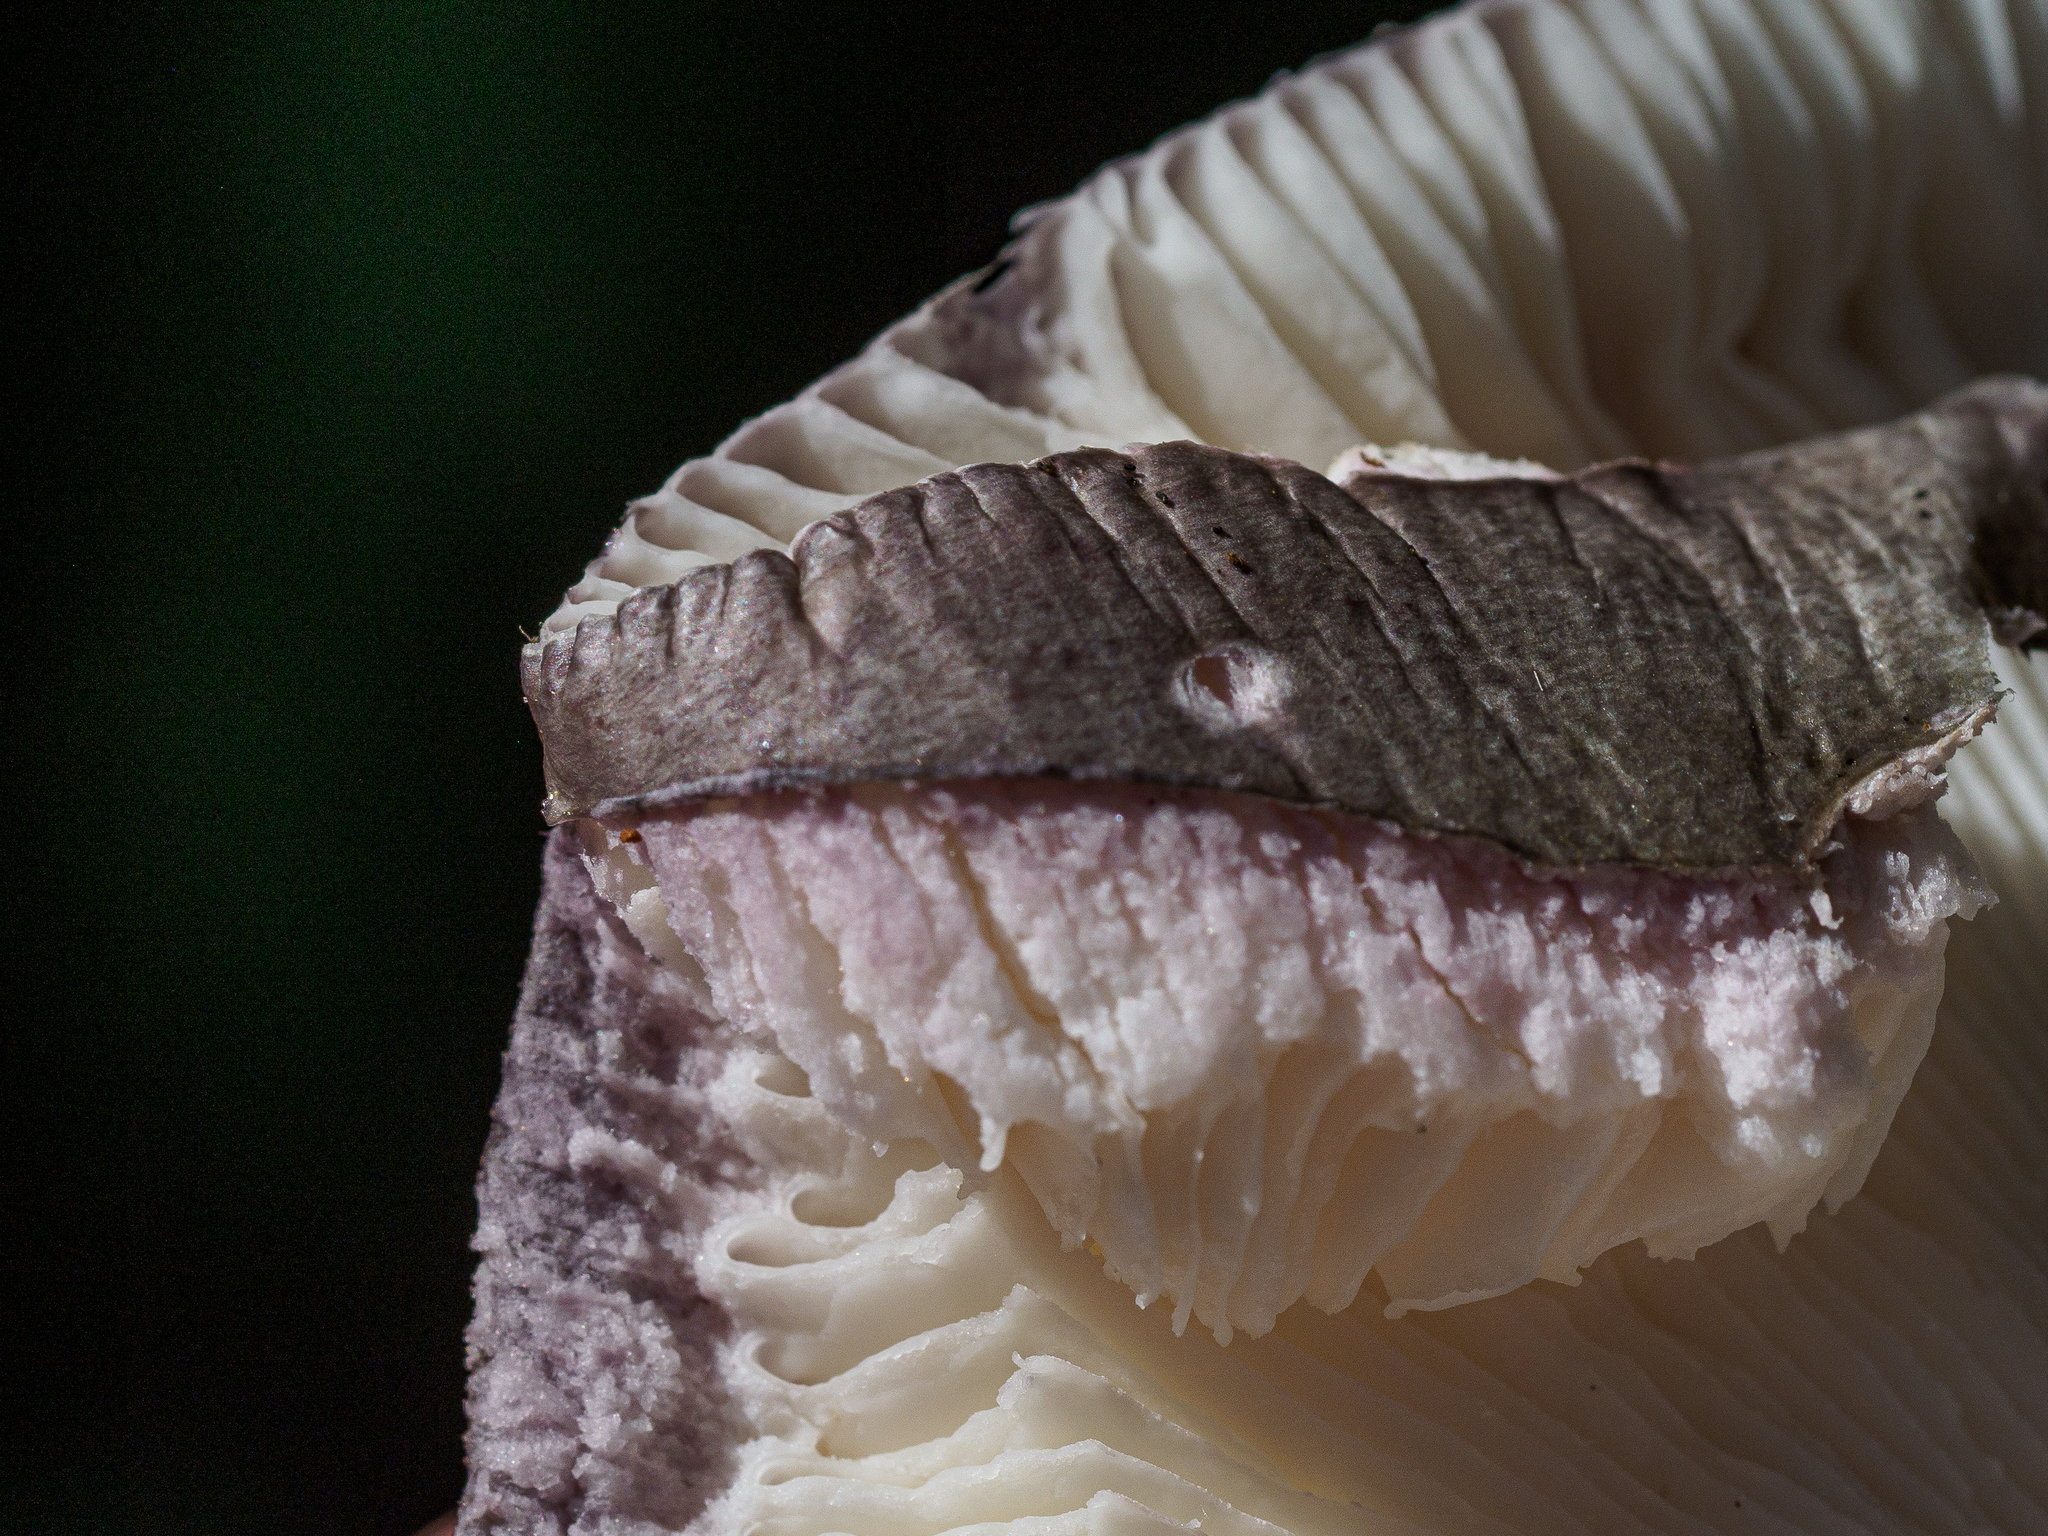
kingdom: Fungi
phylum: Basidiomycota
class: Agaricomycetes
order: Russulales
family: Russulaceae
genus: Russula
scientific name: Russula cyanoxantha
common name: Charcoal burner
